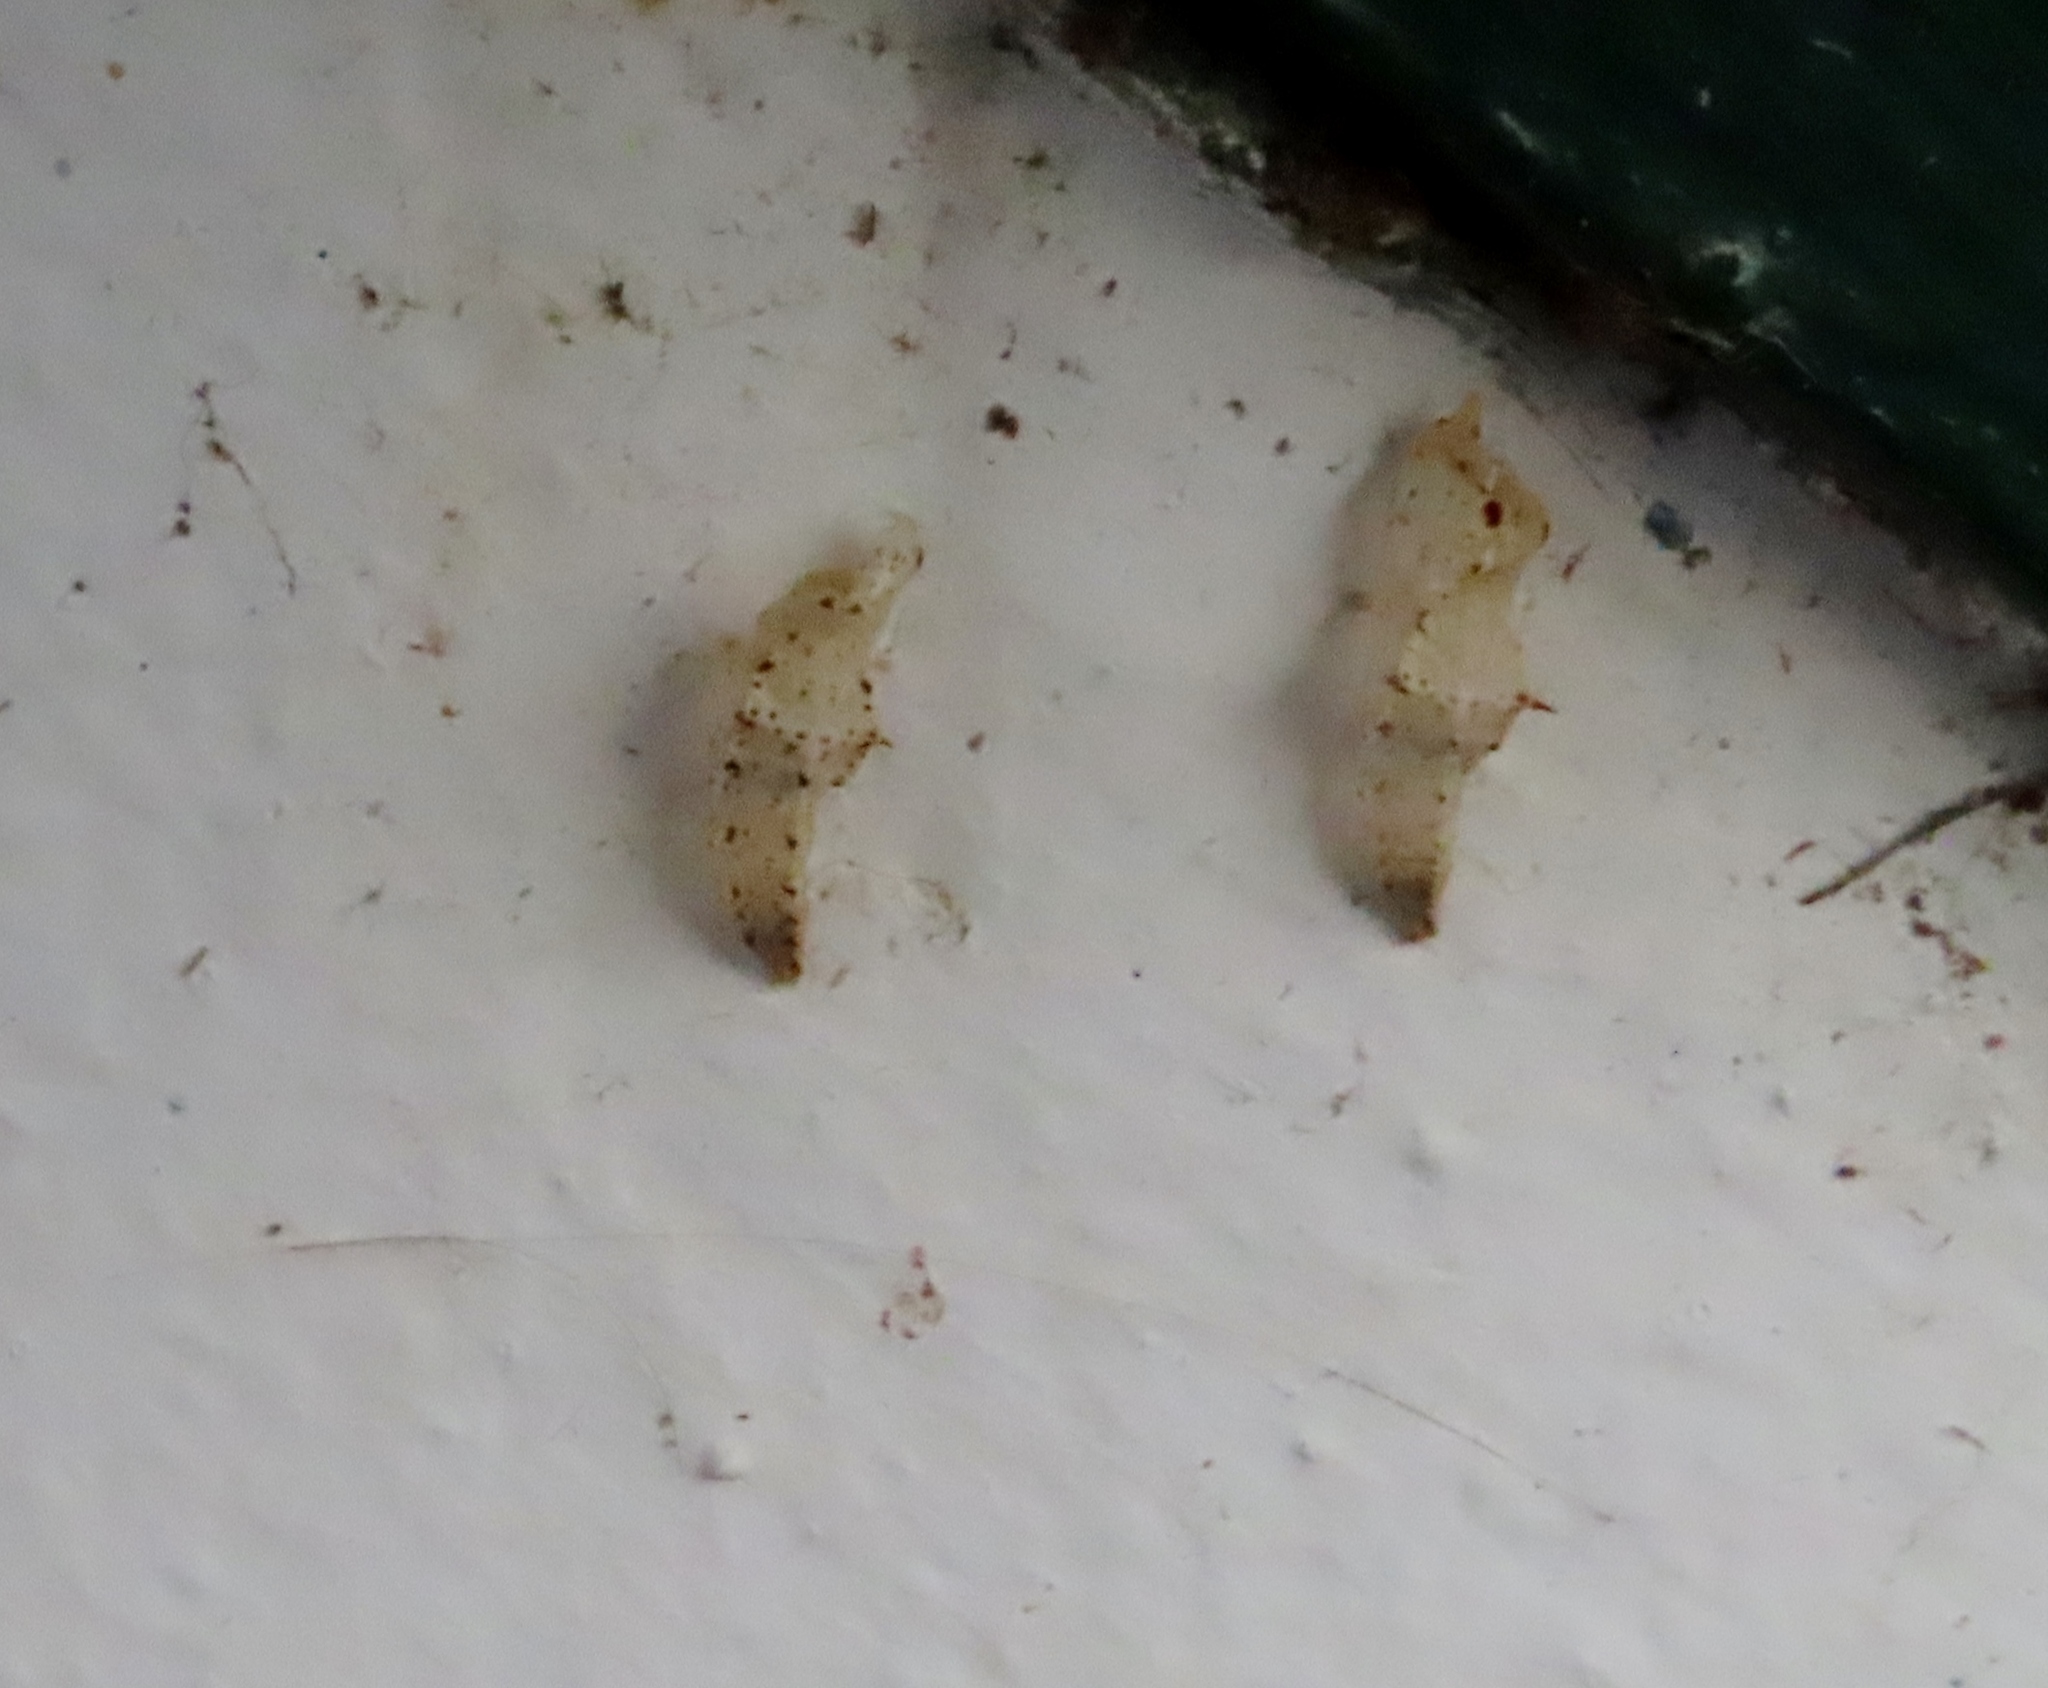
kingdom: Animalia
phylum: Arthropoda
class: Insecta
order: Lepidoptera
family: Pieridae
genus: Pieris
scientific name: Pieris brassicae
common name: Large white
